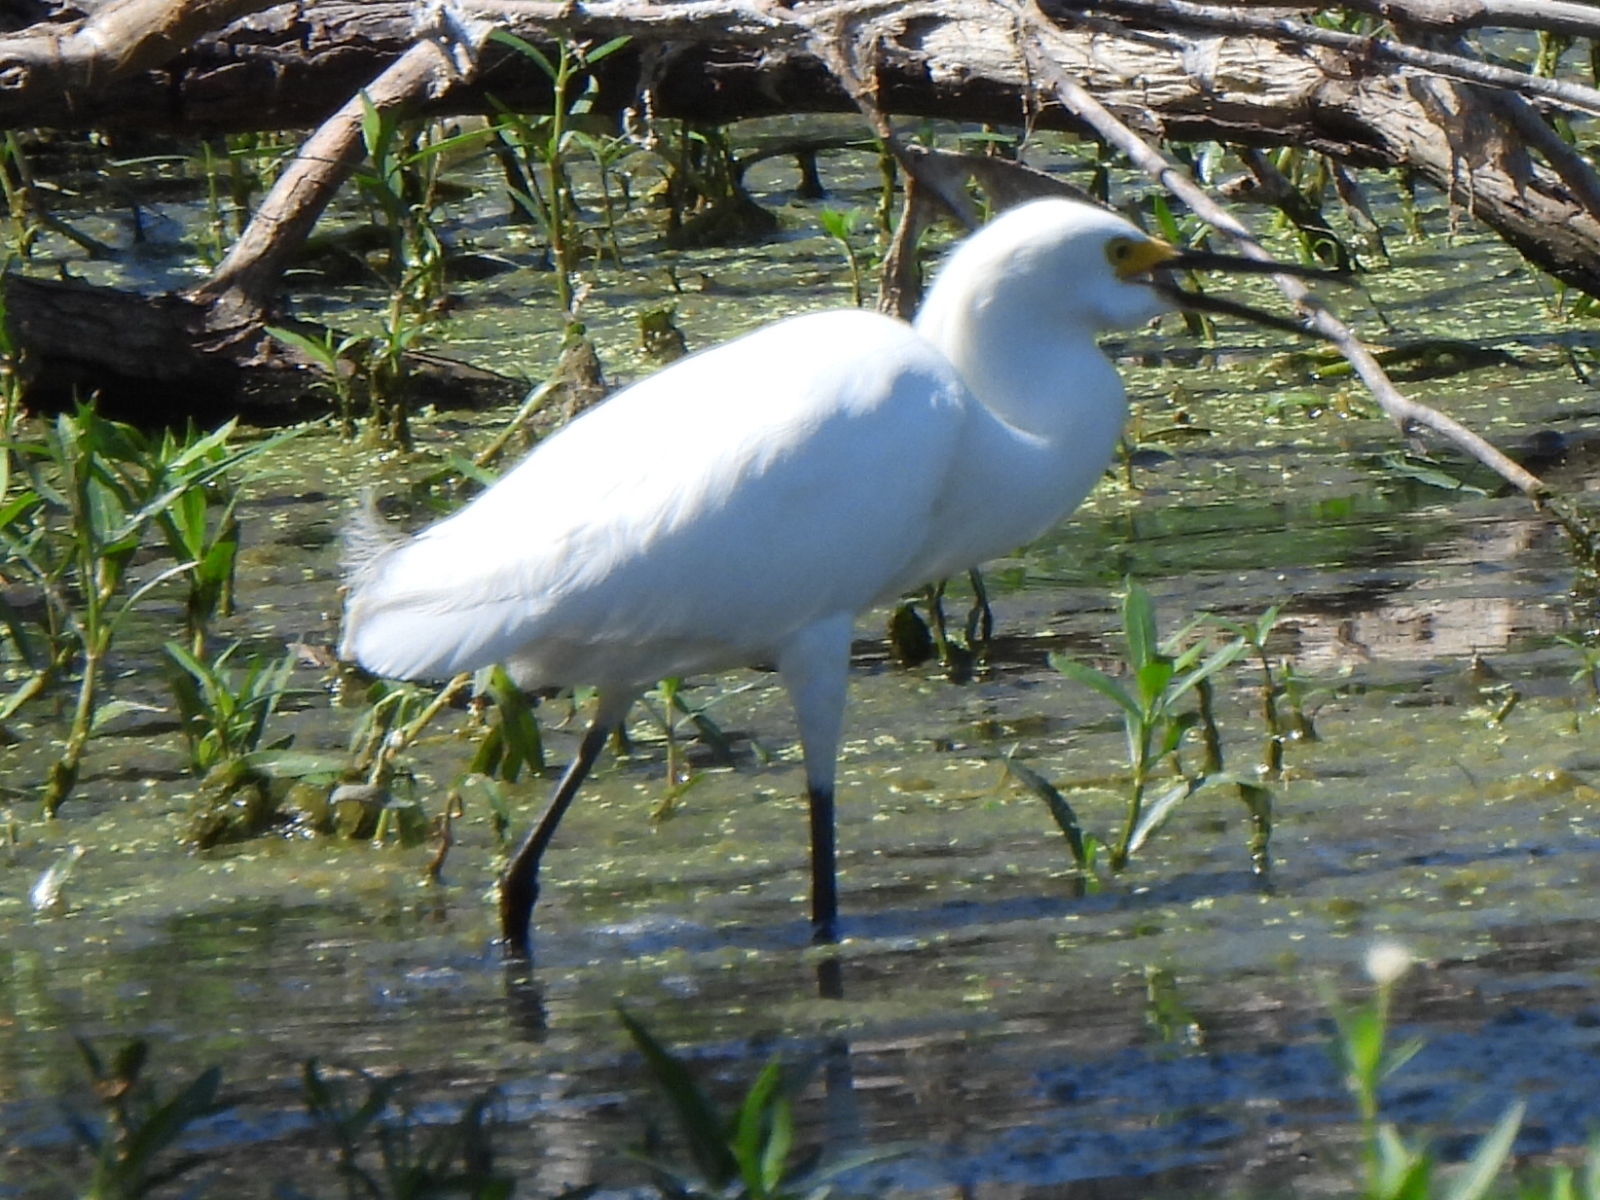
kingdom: Animalia
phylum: Chordata
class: Aves
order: Pelecaniformes
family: Ardeidae
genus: Egretta
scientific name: Egretta thula
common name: Snowy egret
